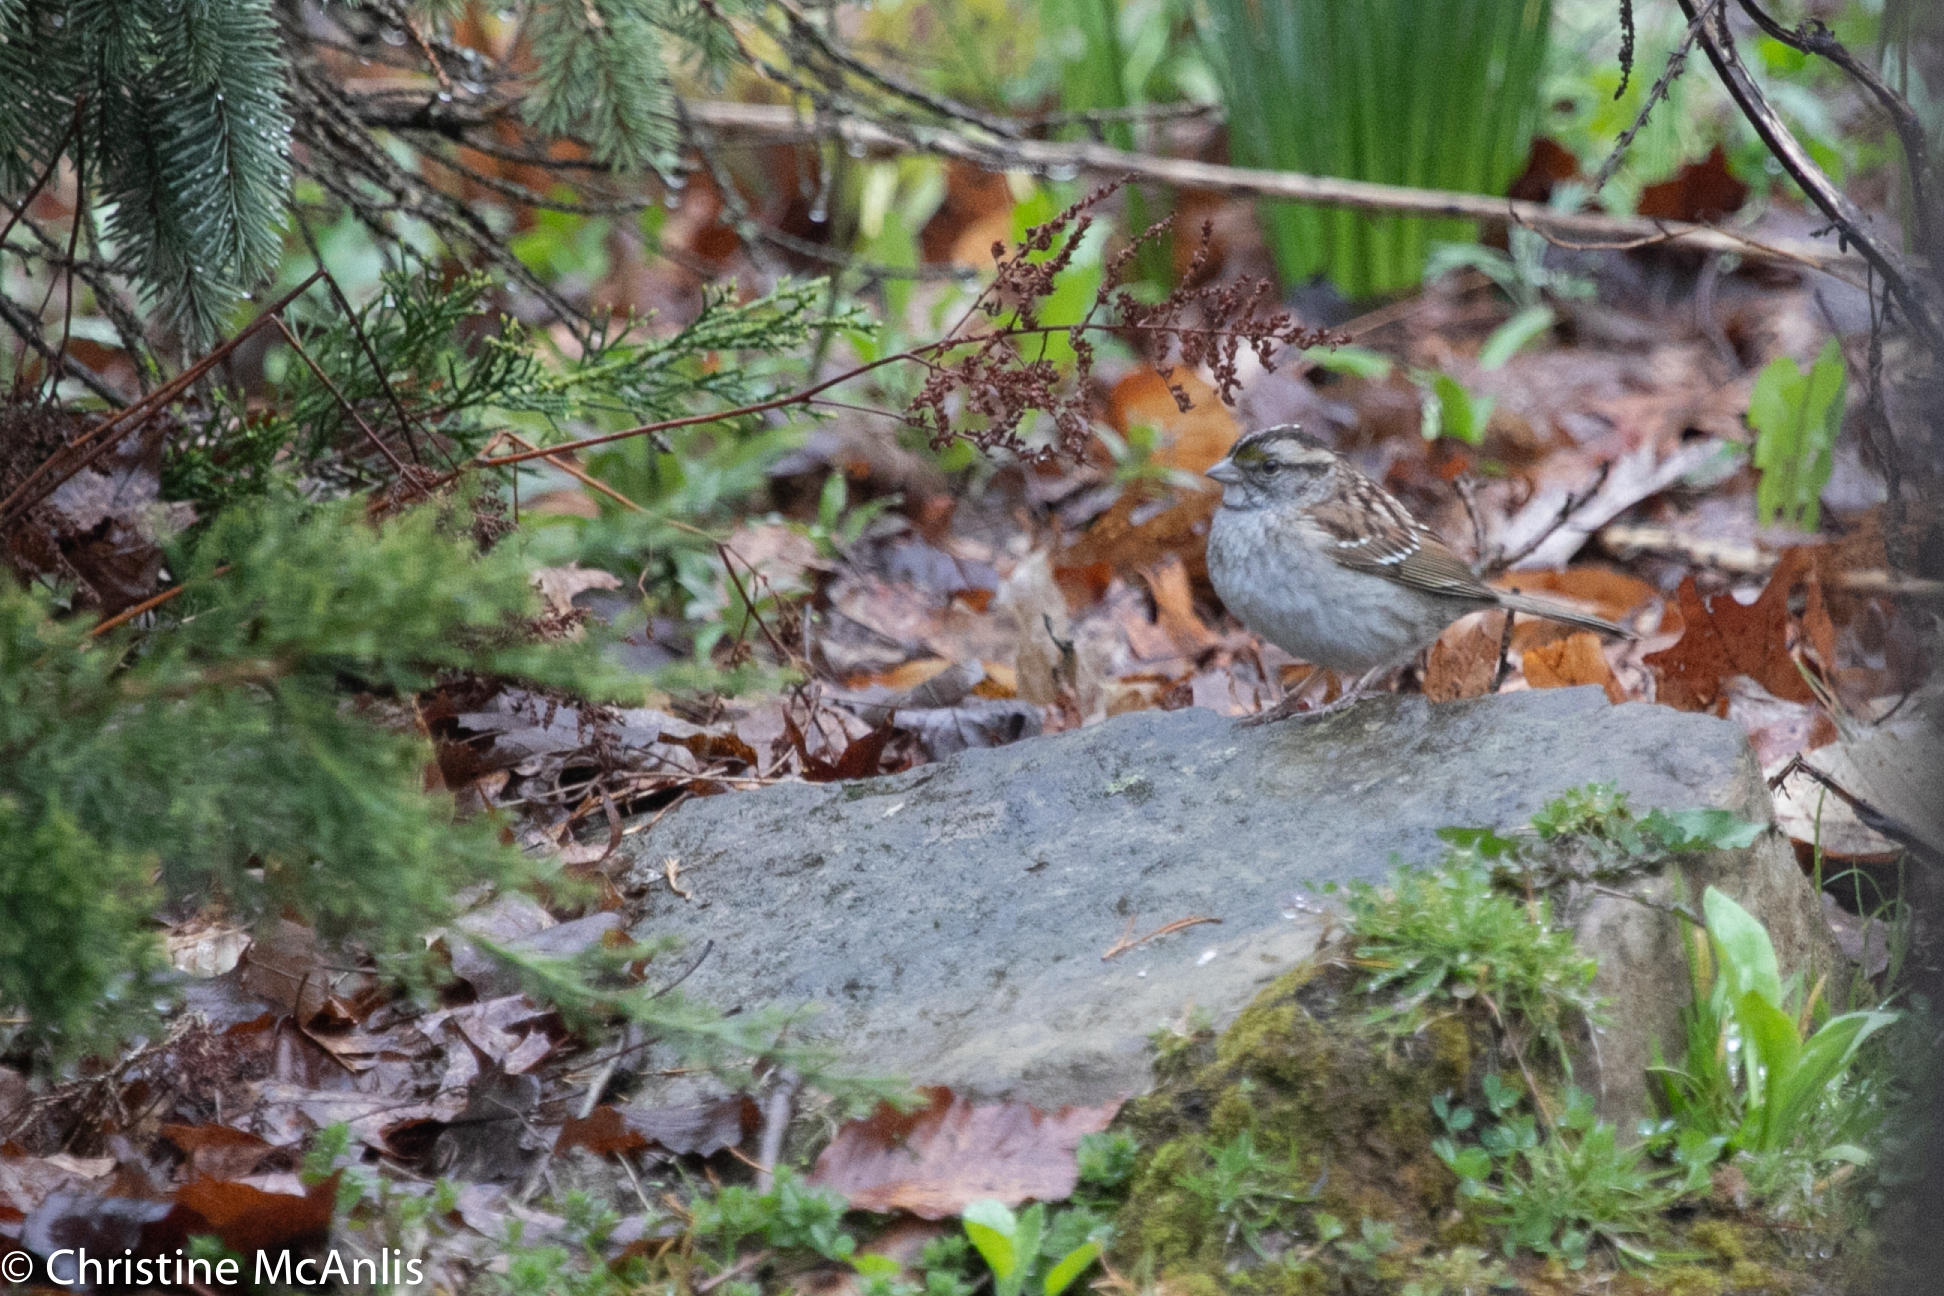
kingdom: Animalia
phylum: Chordata
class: Aves
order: Passeriformes
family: Passerellidae
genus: Zonotrichia
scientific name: Zonotrichia albicollis
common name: White-throated sparrow
